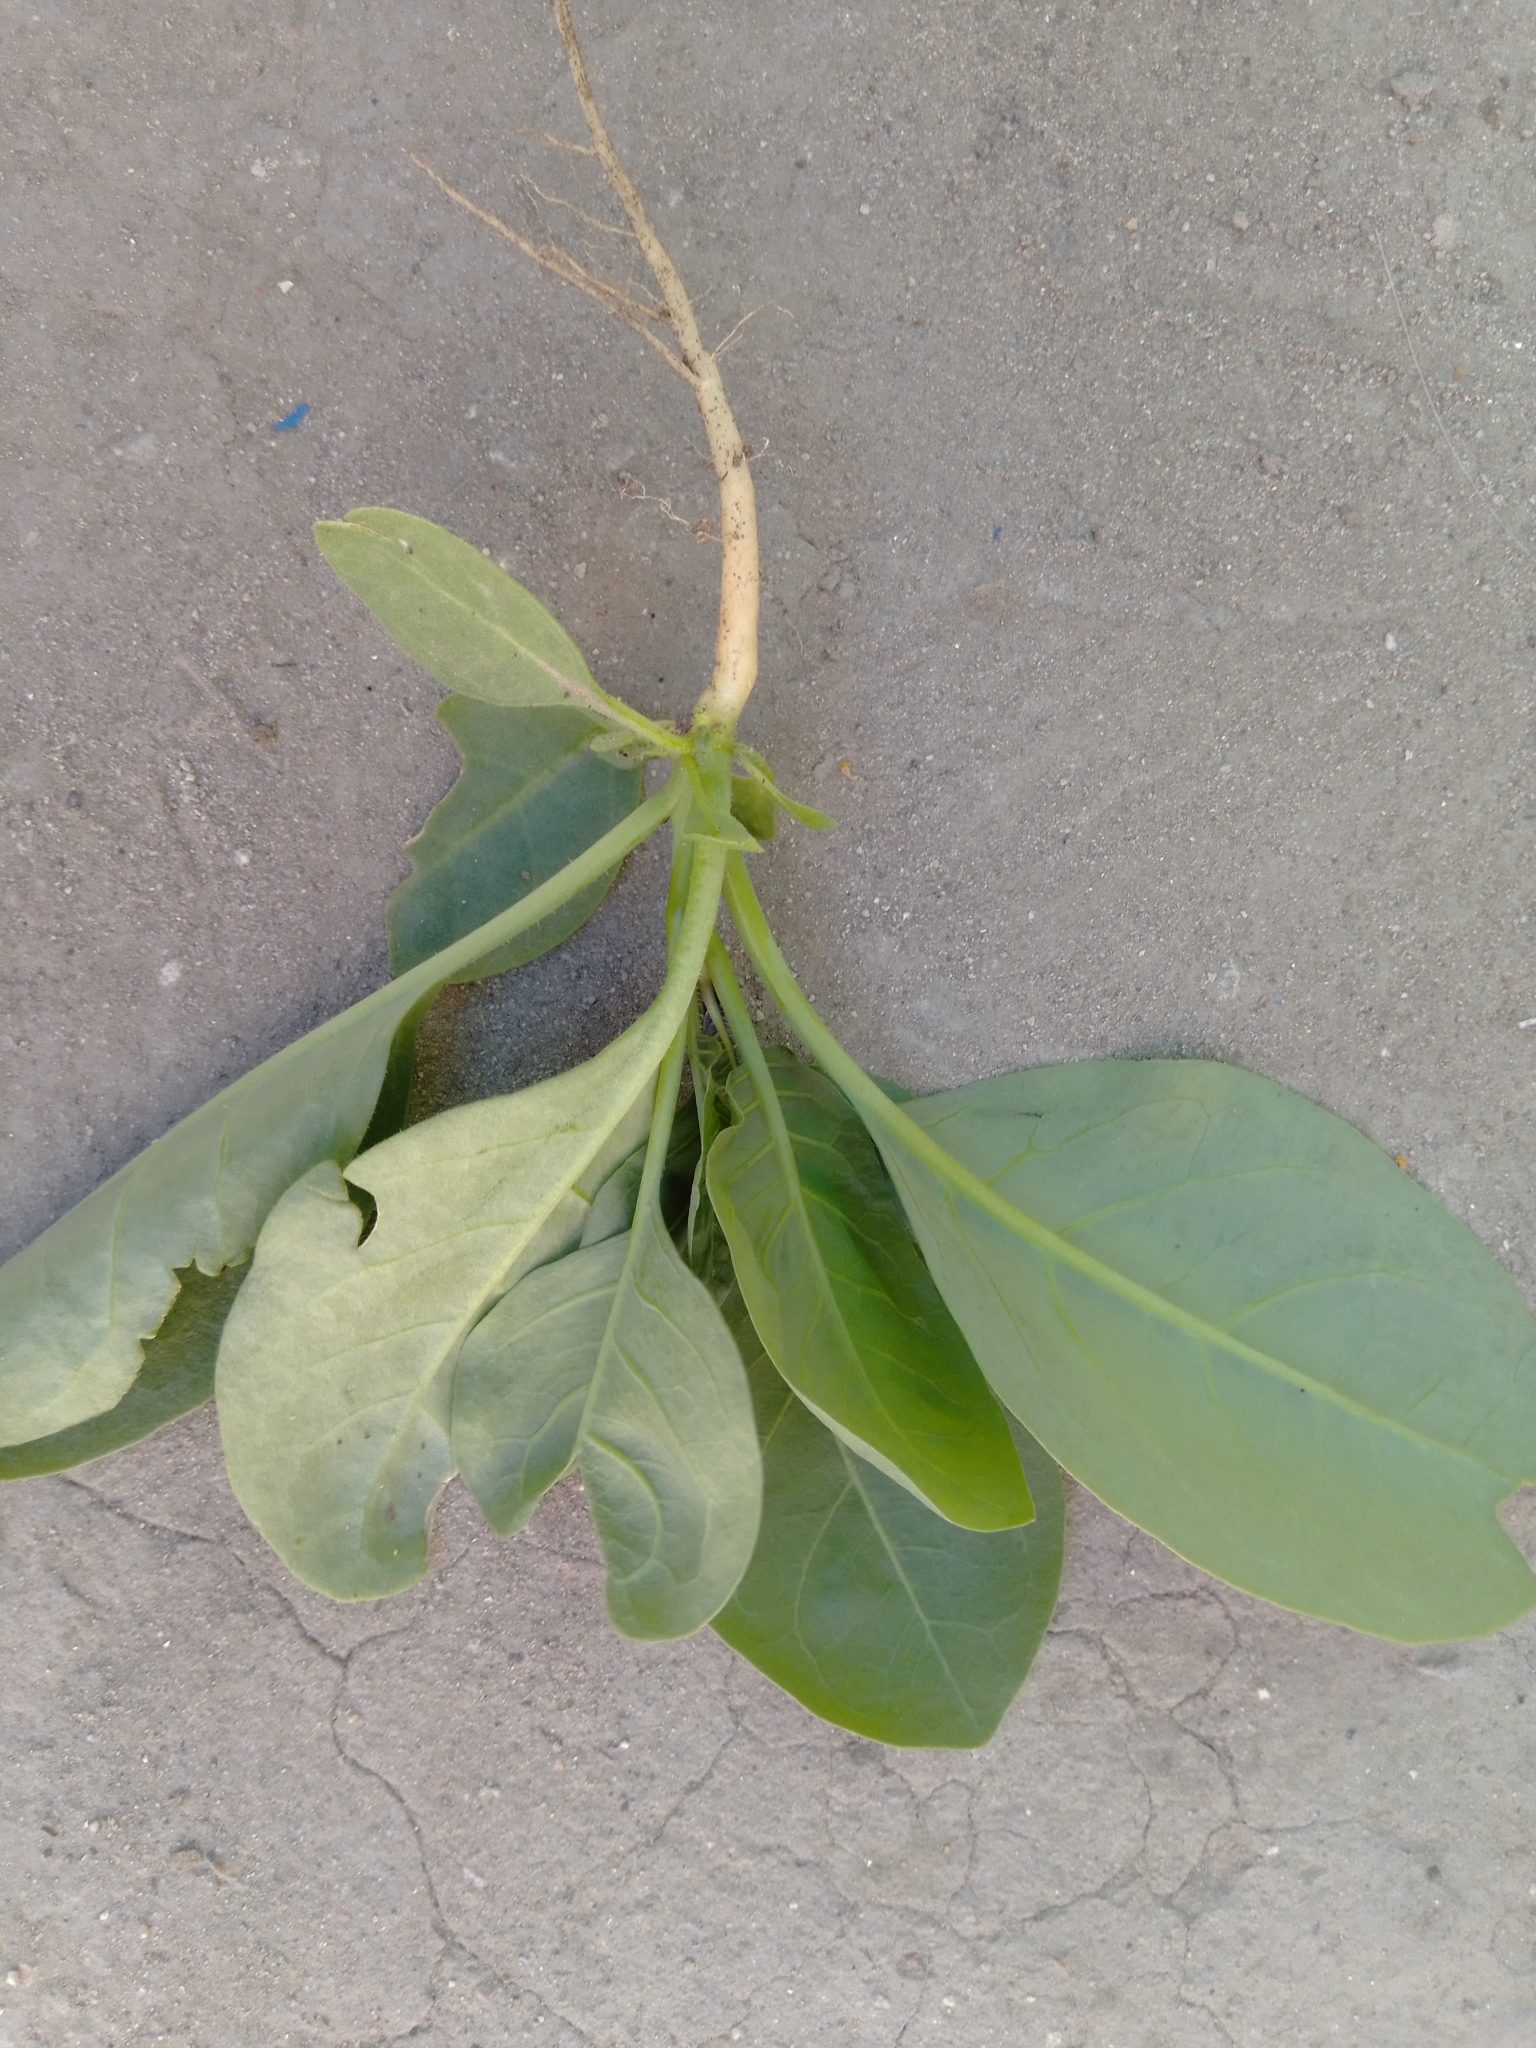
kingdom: Plantae
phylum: Tracheophyta
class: Magnoliopsida
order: Solanales
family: Solanaceae
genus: Nicotiana
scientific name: Nicotiana glauca
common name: Tree tobacco
